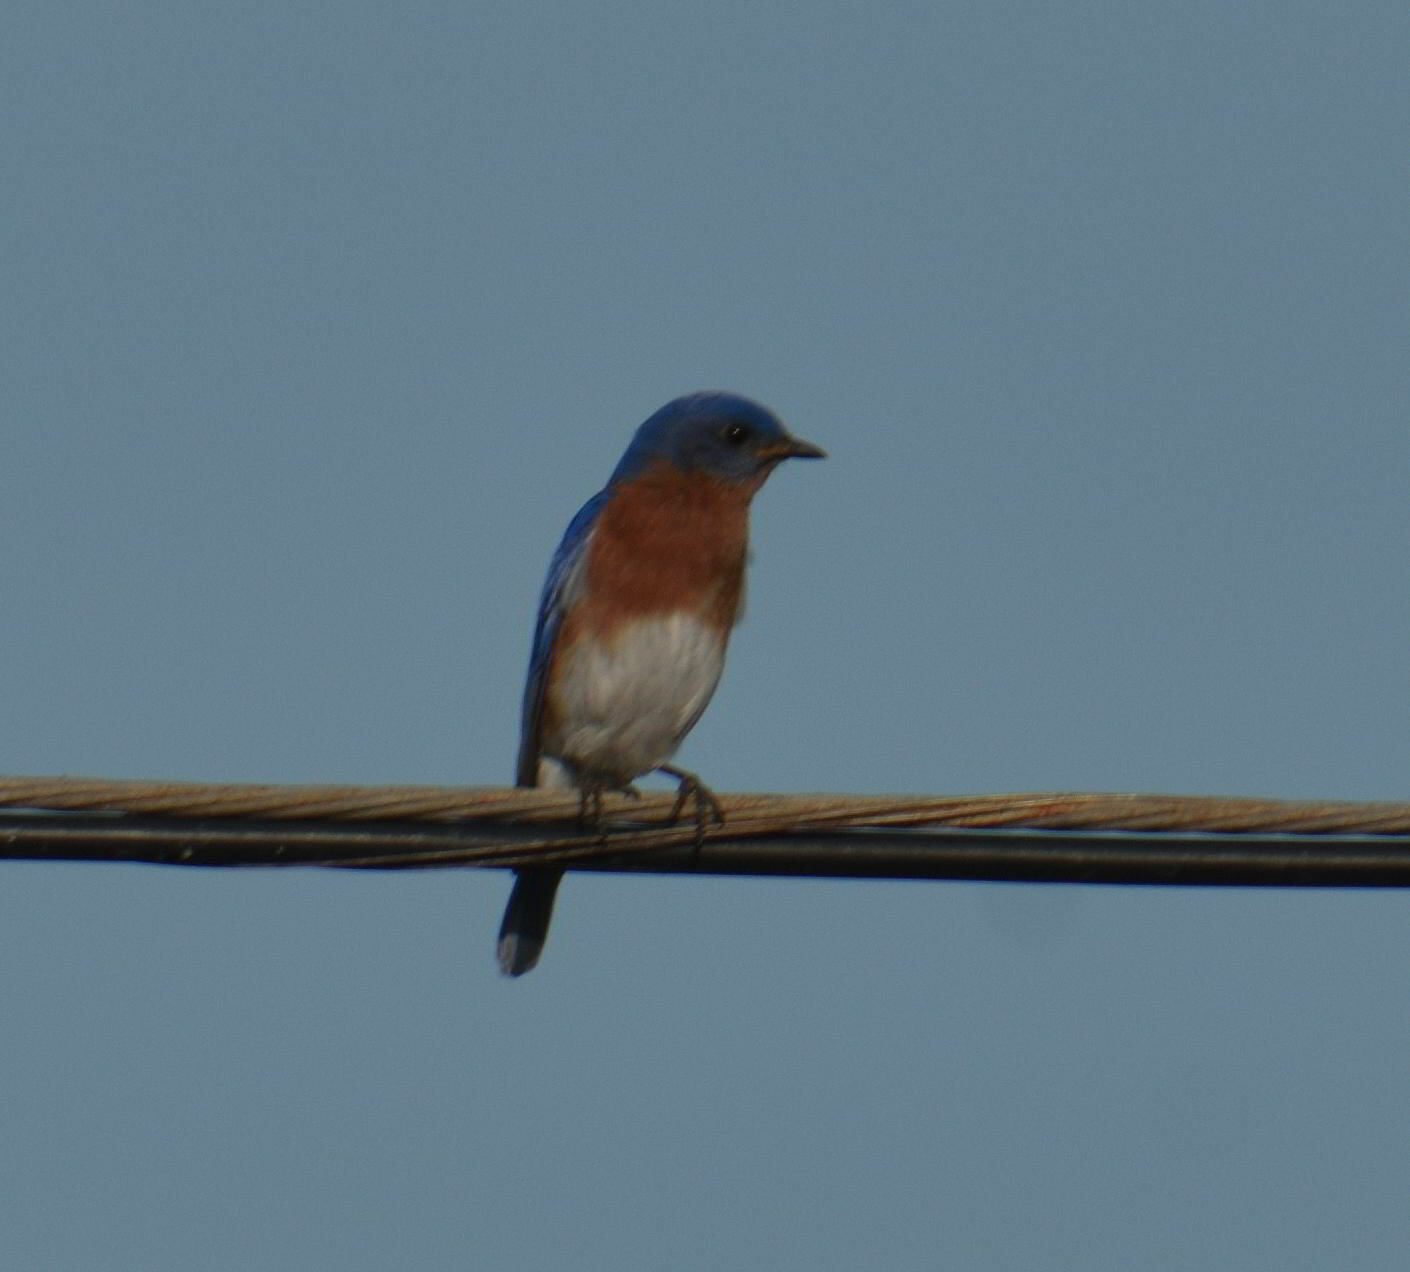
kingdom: Animalia
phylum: Chordata
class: Aves
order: Passeriformes
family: Turdidae
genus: Sialia
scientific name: Sialia sialis
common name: Eastern bluebird
